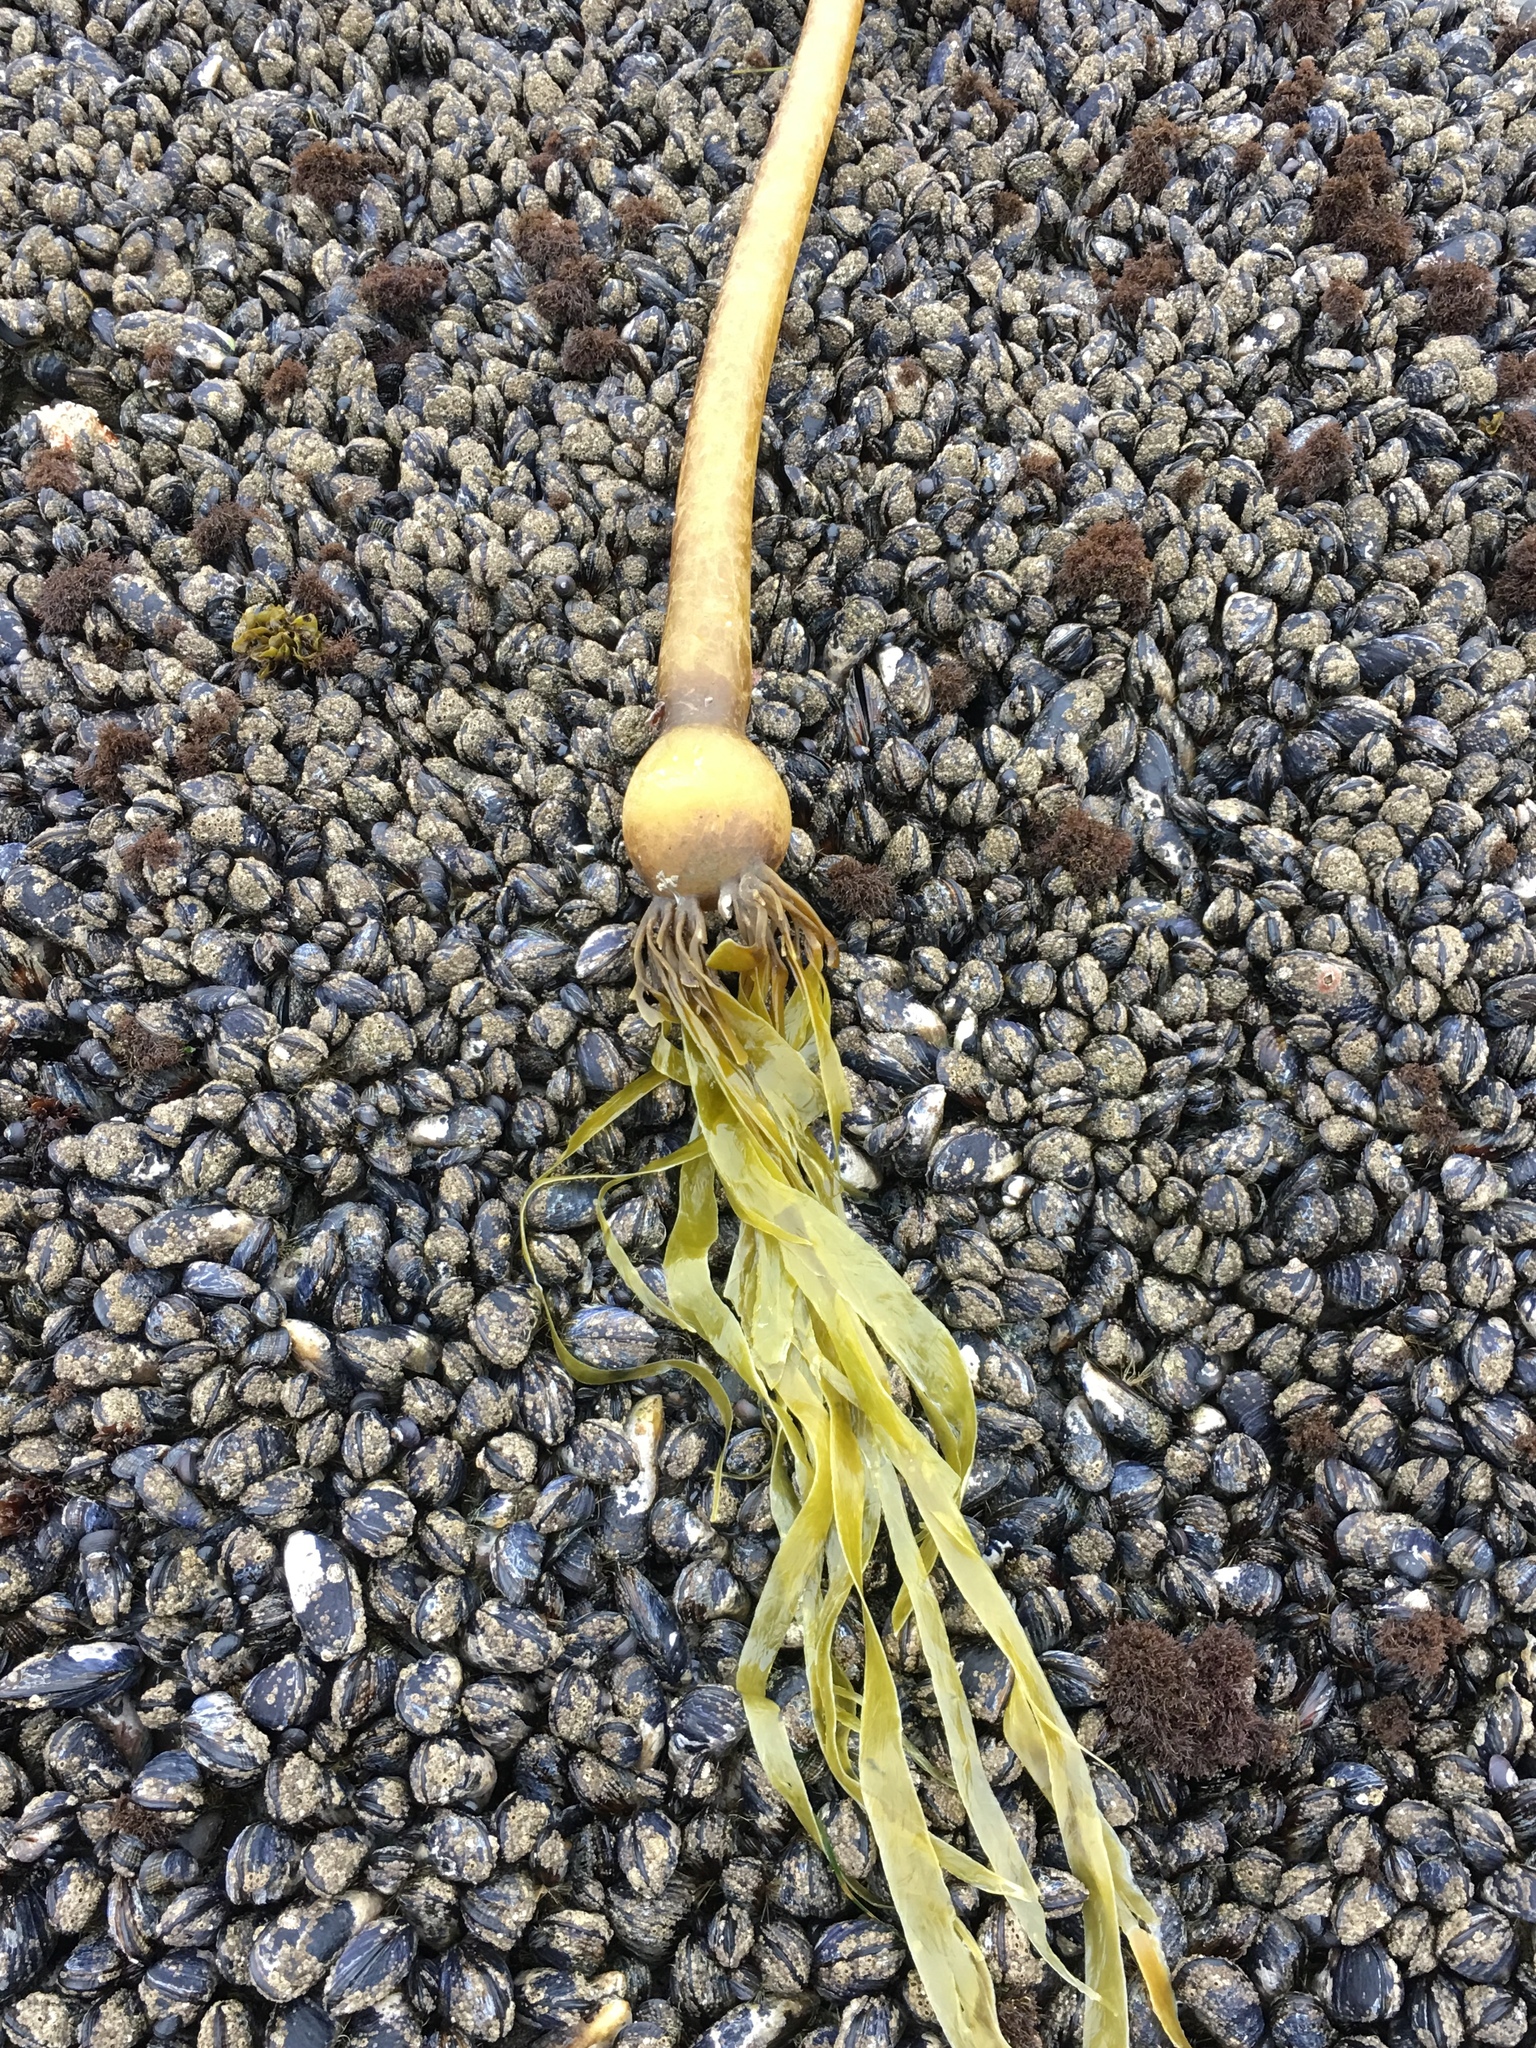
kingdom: Chromista
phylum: Ochrophyta
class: Phaeophyceae
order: Laminariales
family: Laminariaceae
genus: Nereocystis
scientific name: Nereocystis luetkeana
